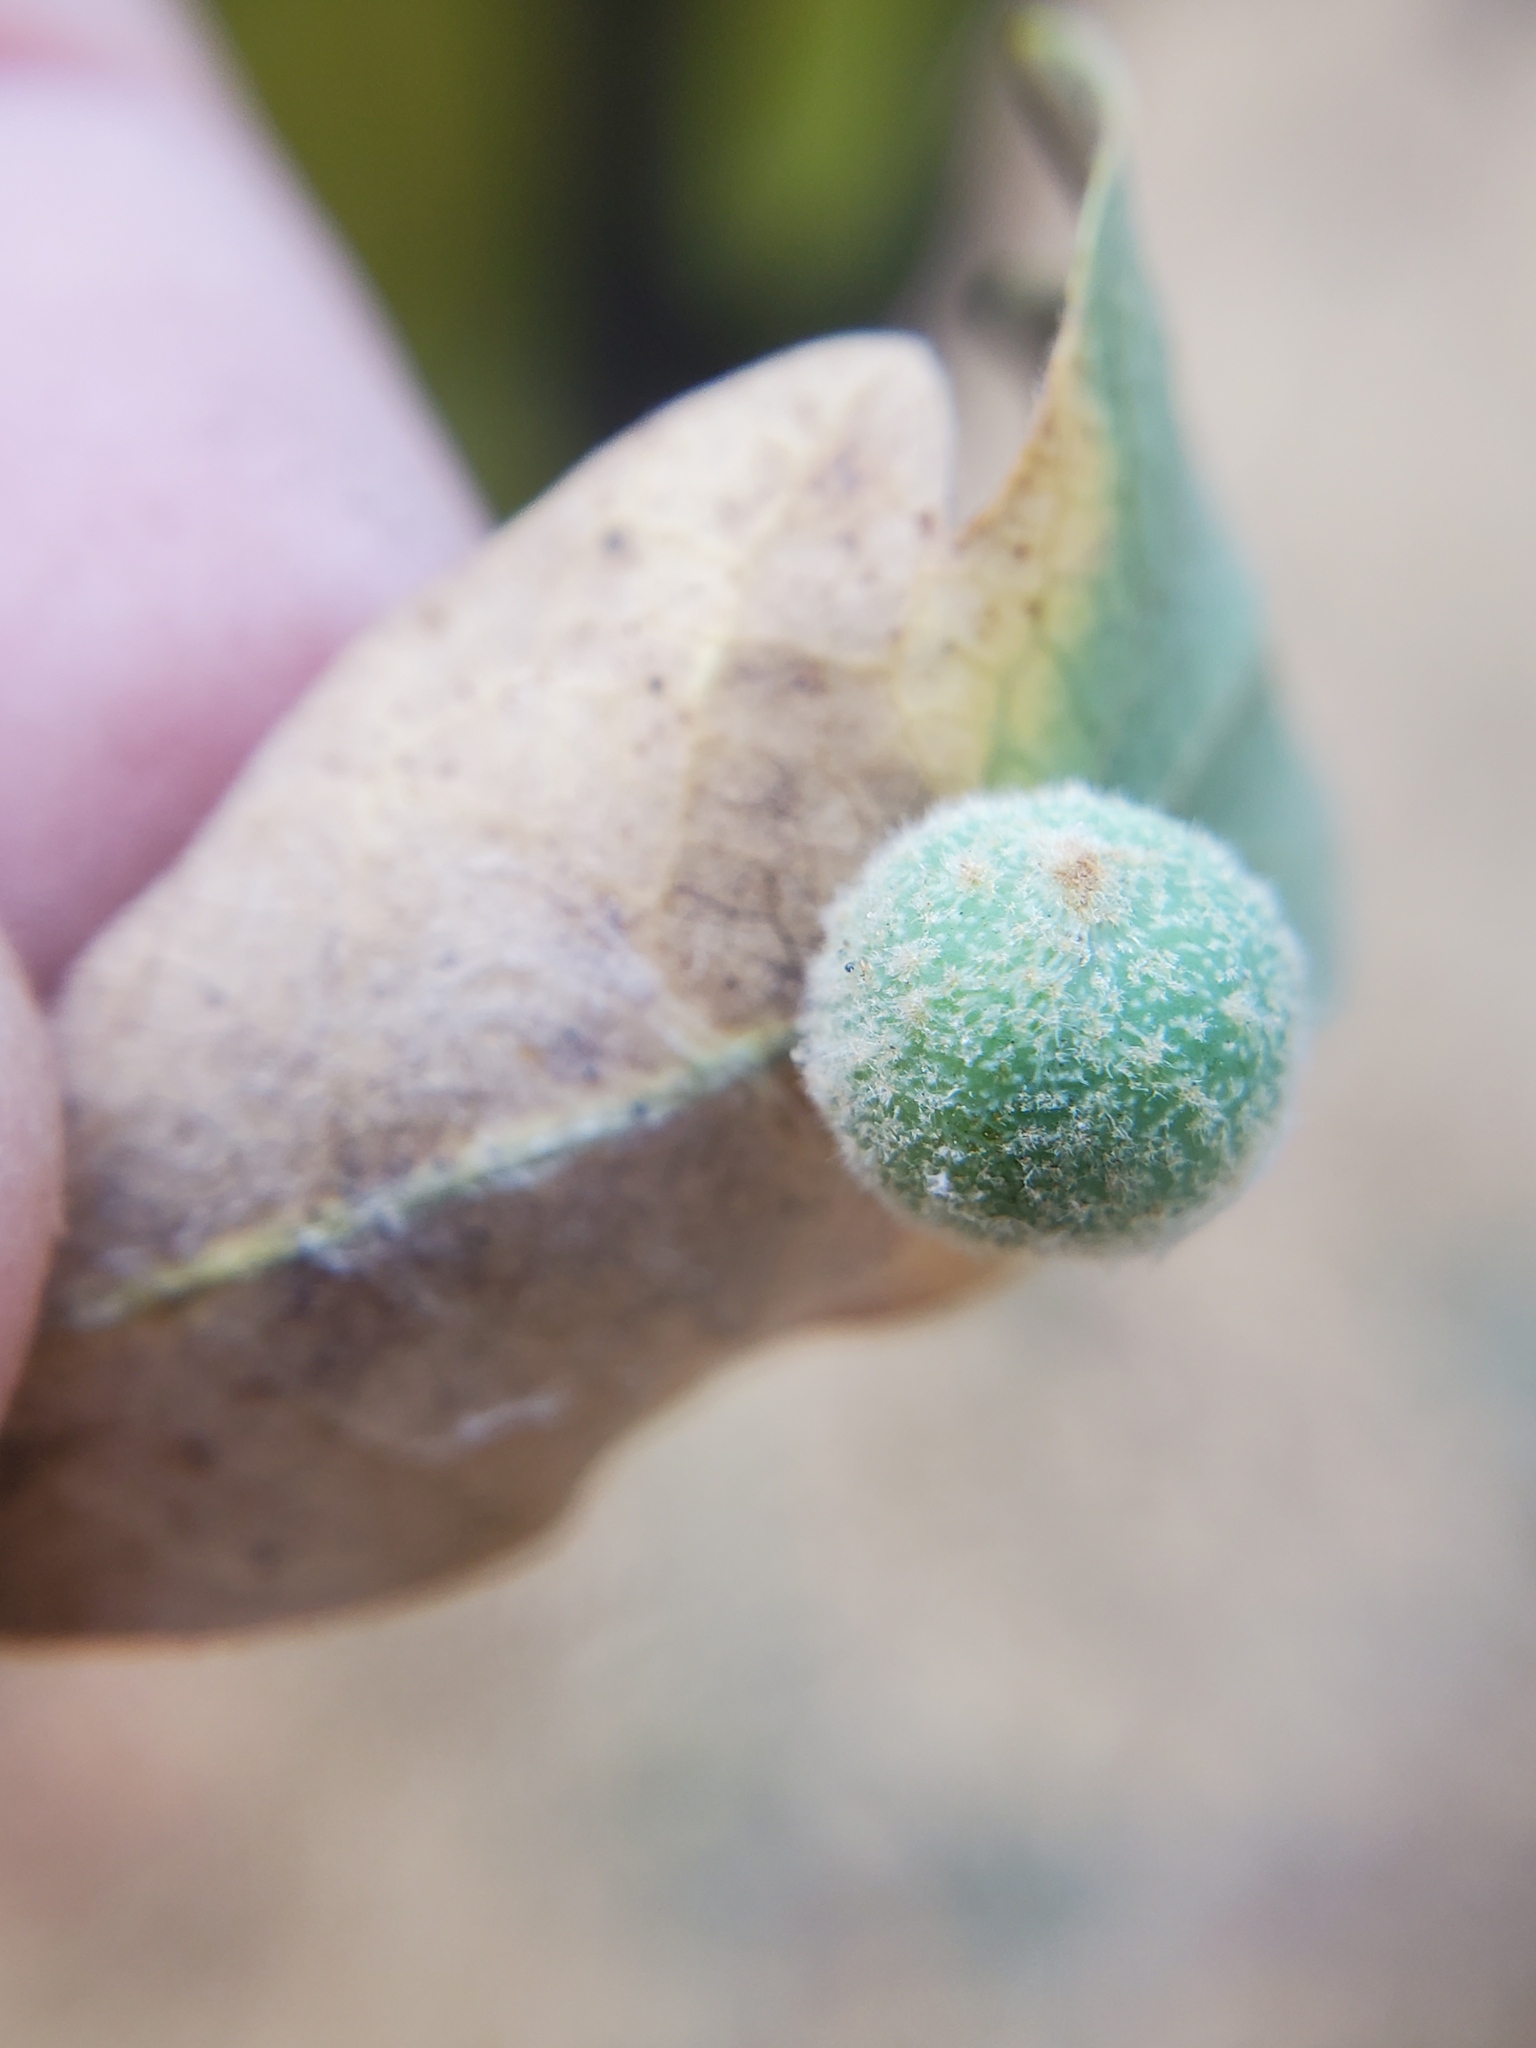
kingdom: Animalia
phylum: Arthropoda
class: Insecta
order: Hymenoptera
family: Cynipidae
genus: Cynips
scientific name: Cynips
